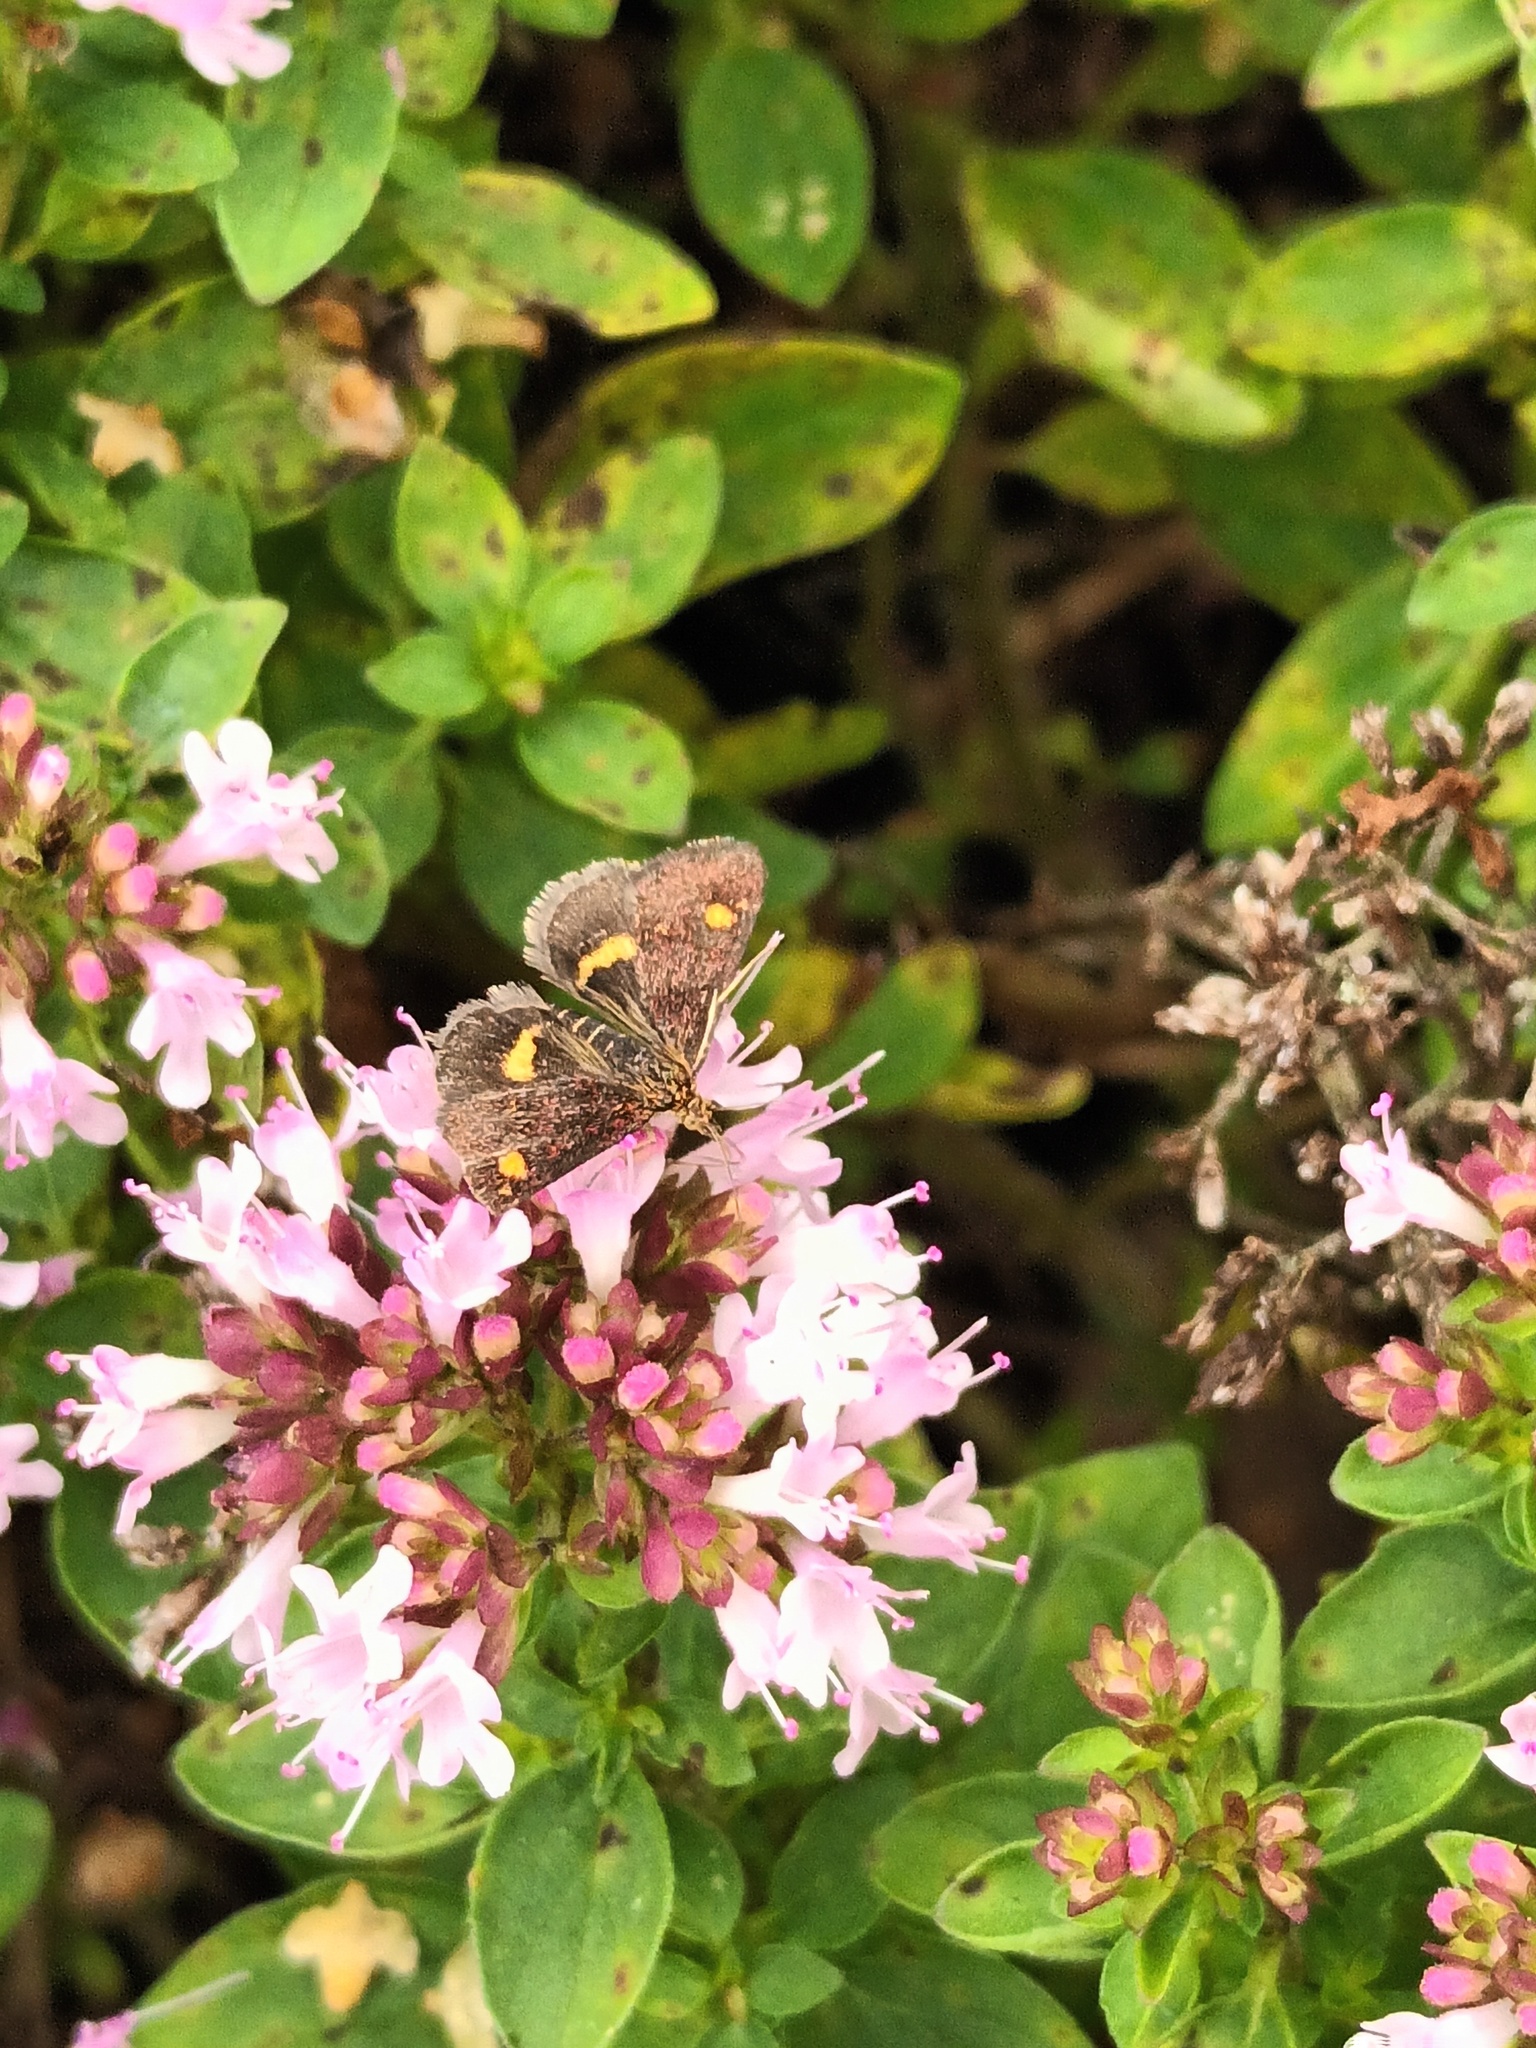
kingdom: Animalia
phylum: Arthropoda
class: Insecta
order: Lepidoptera
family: Crambidae
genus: Pyrausta
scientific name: Pyrausta aurata
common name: Small purple & gold
